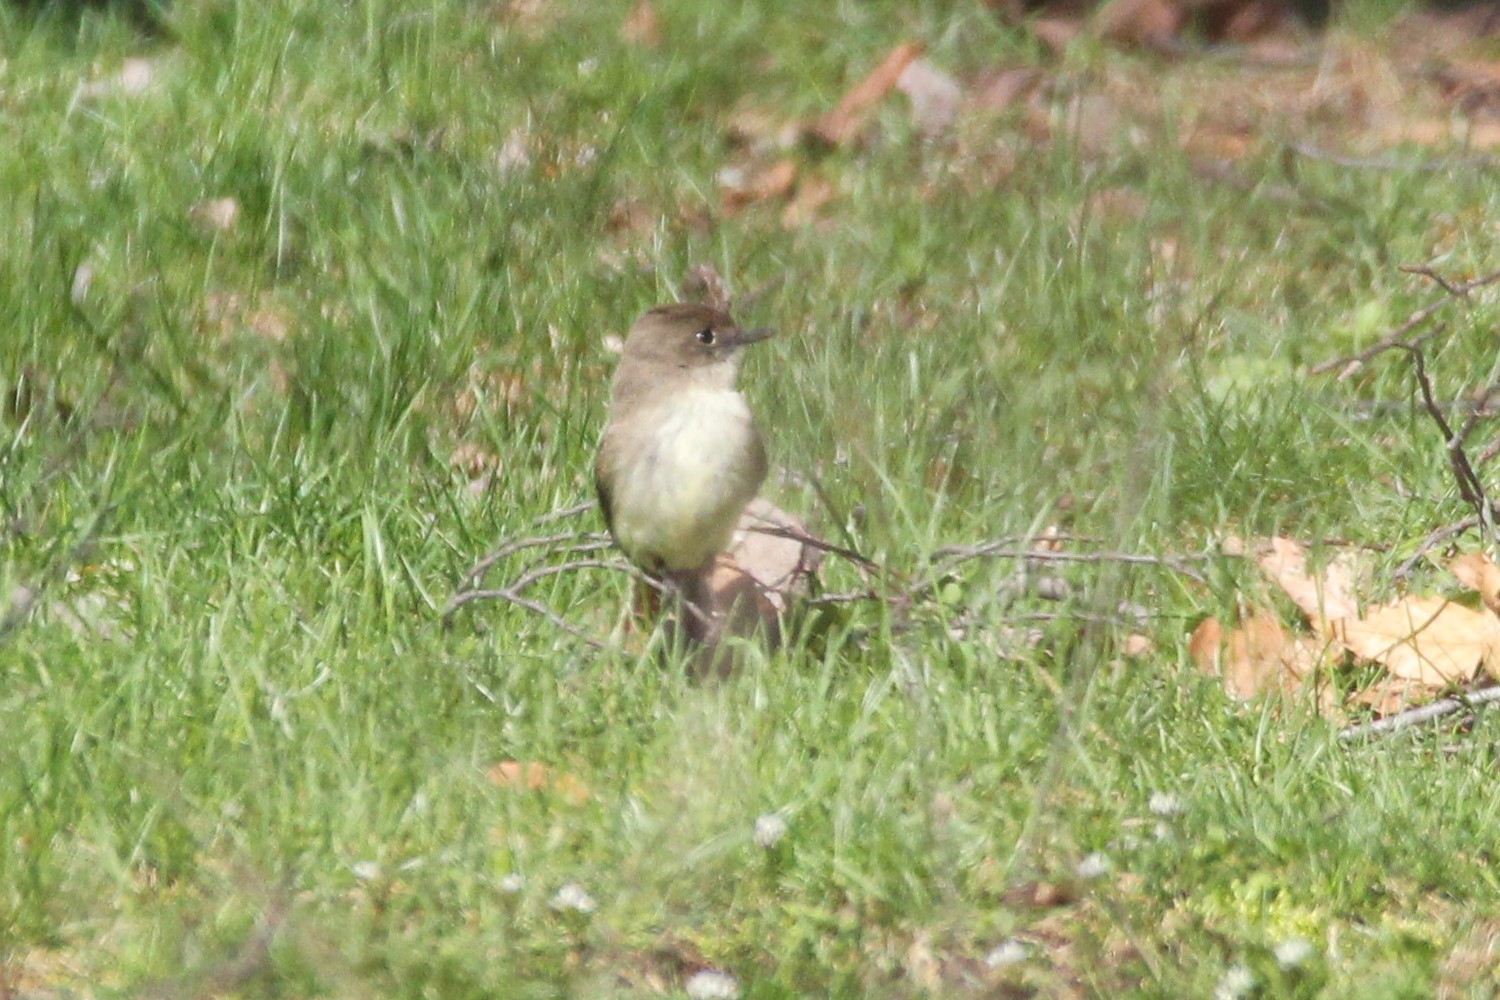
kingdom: Animalia
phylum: Chordata
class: Aves
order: Passeriformes
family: Tyrannidae
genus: Sayornis
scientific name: Sayornis phoebe
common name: Eastern phoebe
